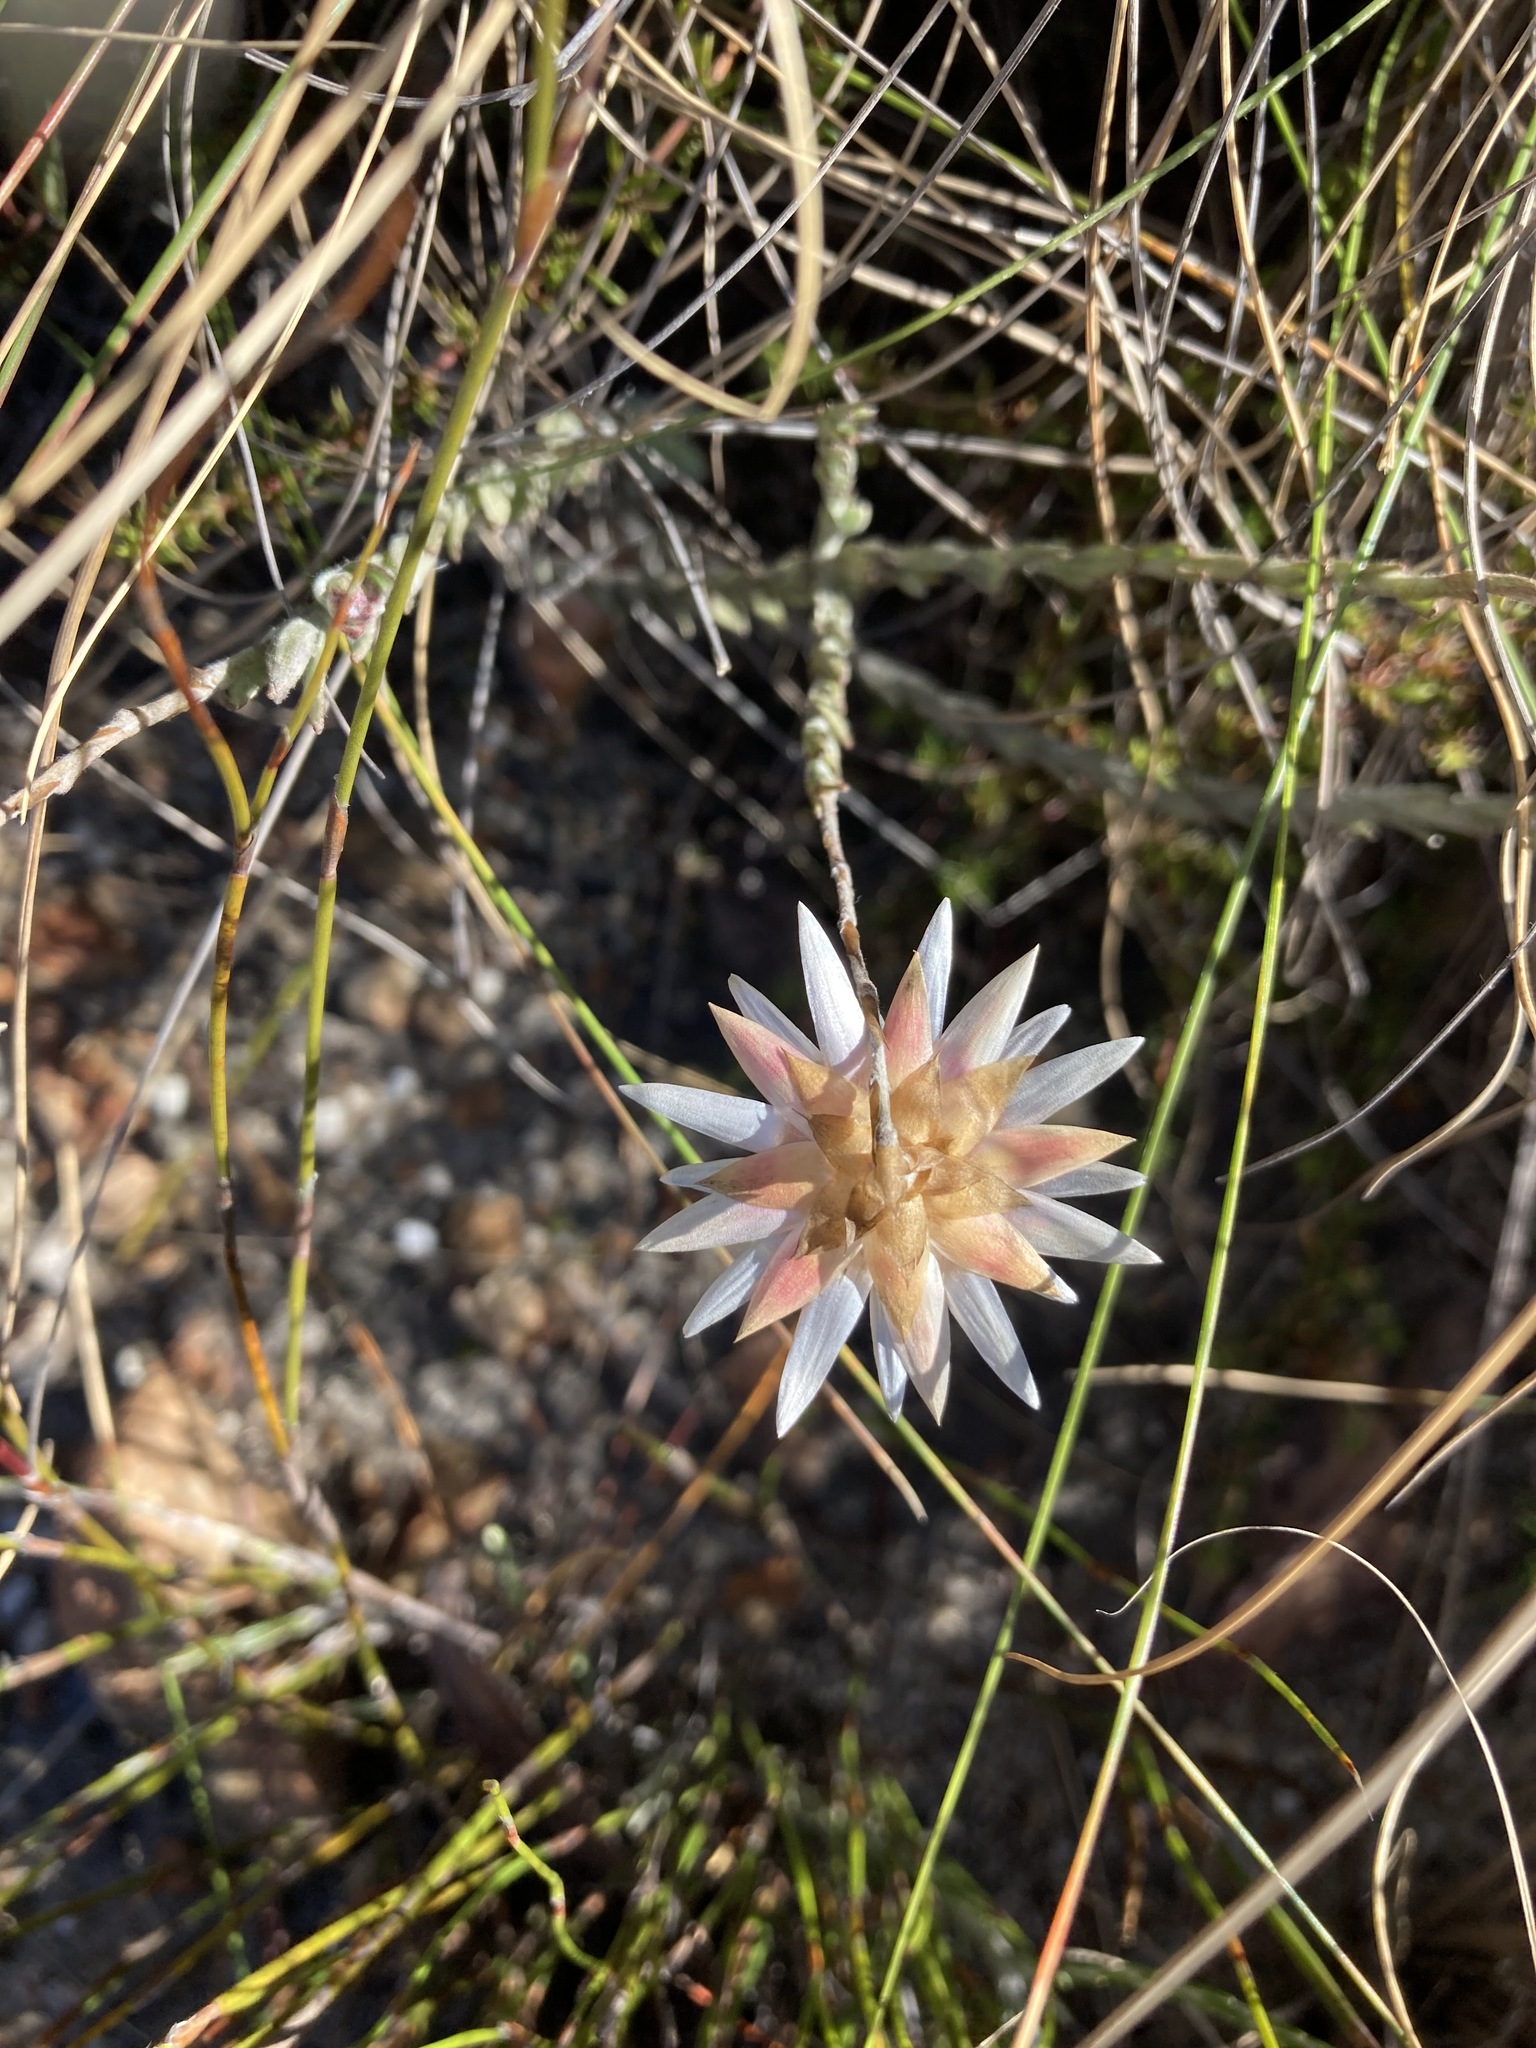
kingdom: Plantae
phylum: Tracheophyta
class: Magnoliopsida
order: Asterales
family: Asteraceae
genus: Syncarpha
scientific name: Syncarpha canescens
